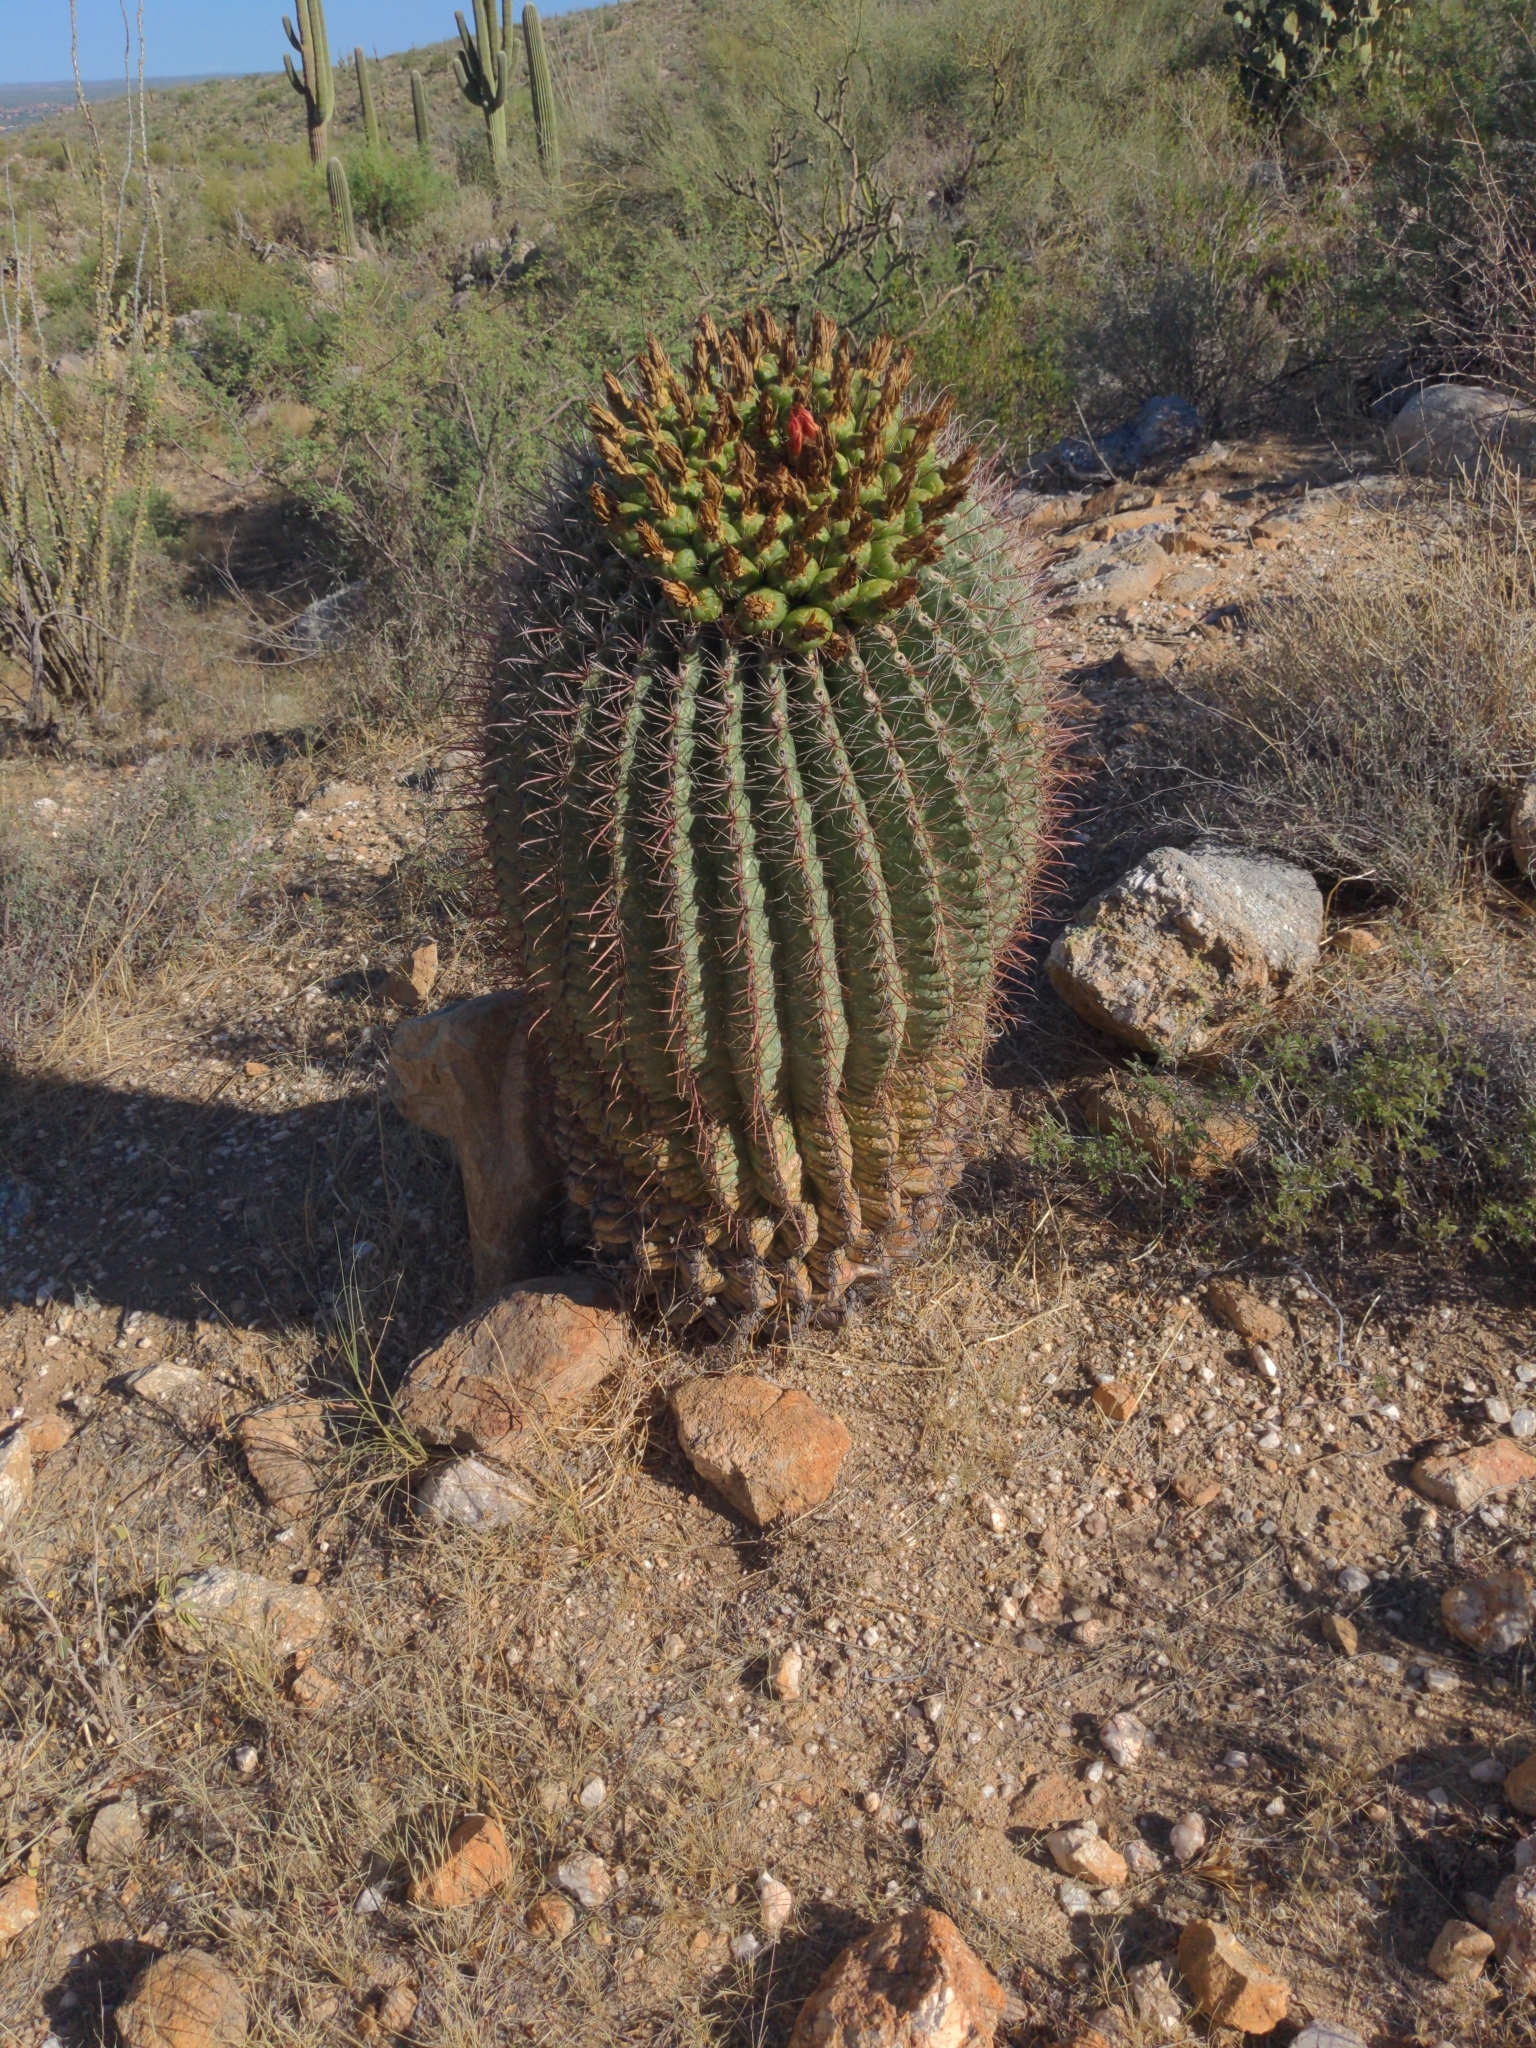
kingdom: Plantae
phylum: Tracheophyta
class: Magnoliopsida
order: Caryophyllales
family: Cactaceae
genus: Ferocactus
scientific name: Ferocactus wislizeni
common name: Candy barrel cactus
